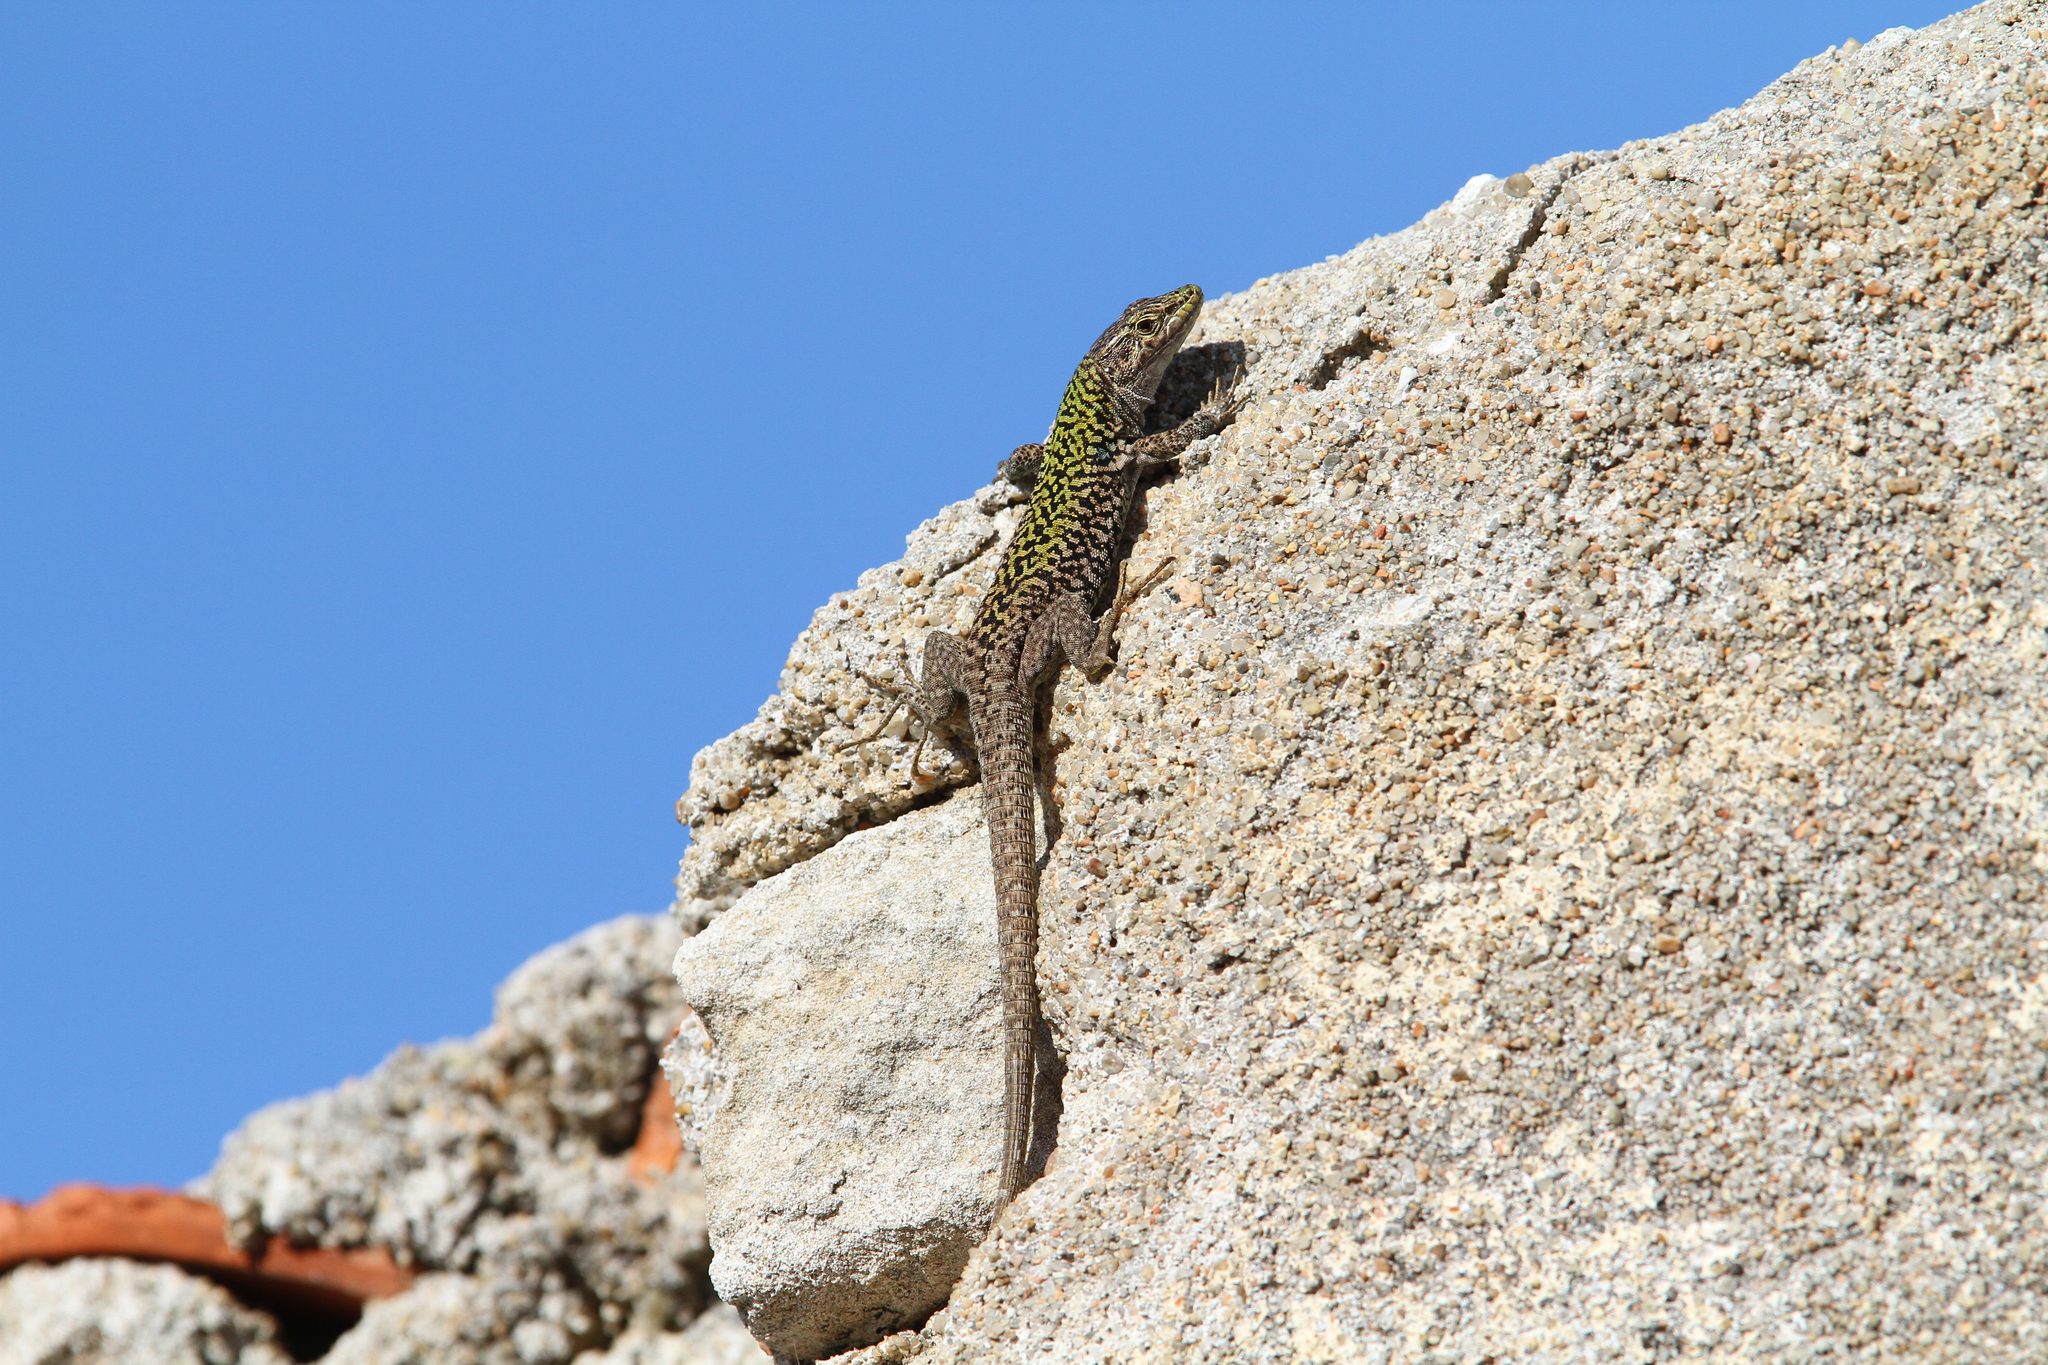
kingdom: Animalia
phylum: Chordata
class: Squamata
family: Lacertidae
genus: Podarcis
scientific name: Podarcis siculus
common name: Italian wall lizard
